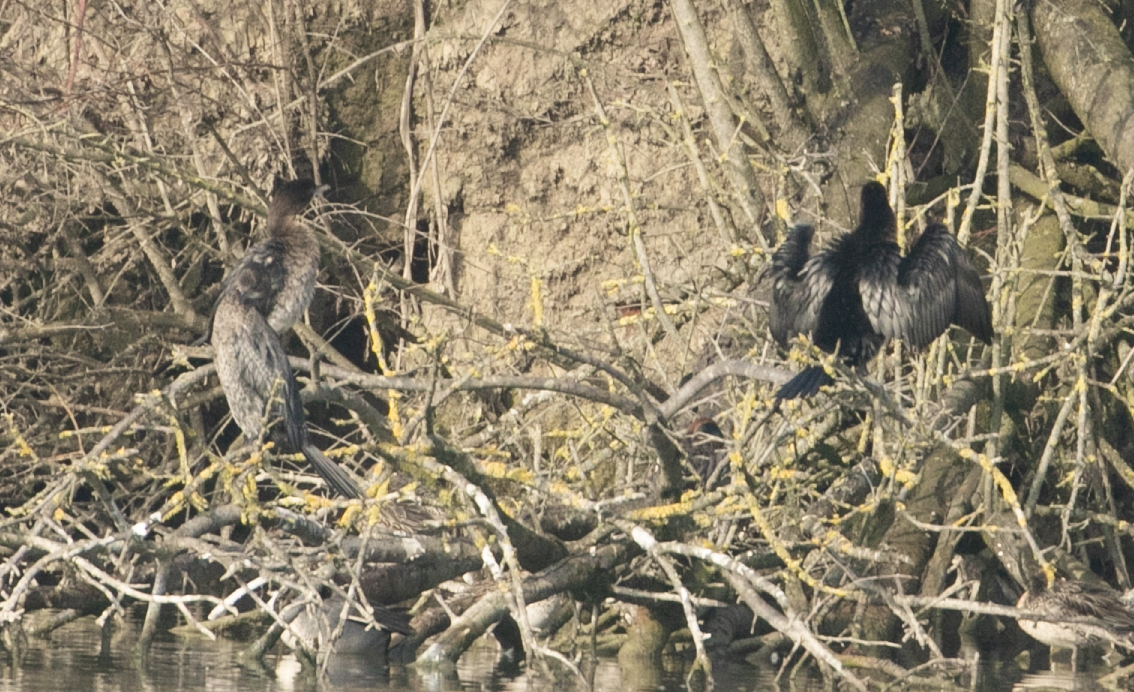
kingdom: Animalia
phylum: Chordata
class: Aves
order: Suliformes
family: Phalacrocoracidae
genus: Microcarbo
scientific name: Microcarbo pygmaeus
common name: Pygmy cormorant
